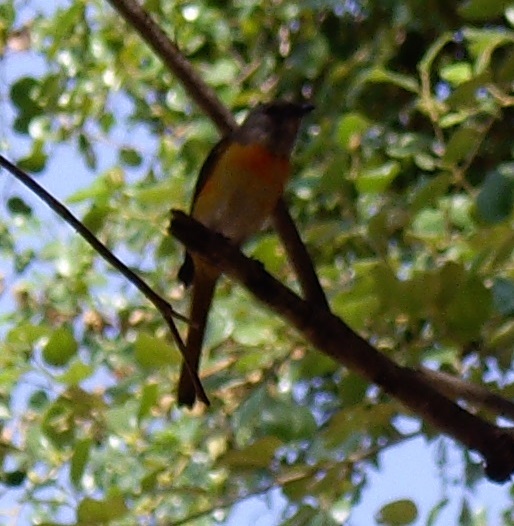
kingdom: Animalia
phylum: Chordata
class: Aves
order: Passeriformes
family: Campephagidae
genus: Pericrocotus
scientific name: Pericrocotus cinnamomeus
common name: Small minivet
